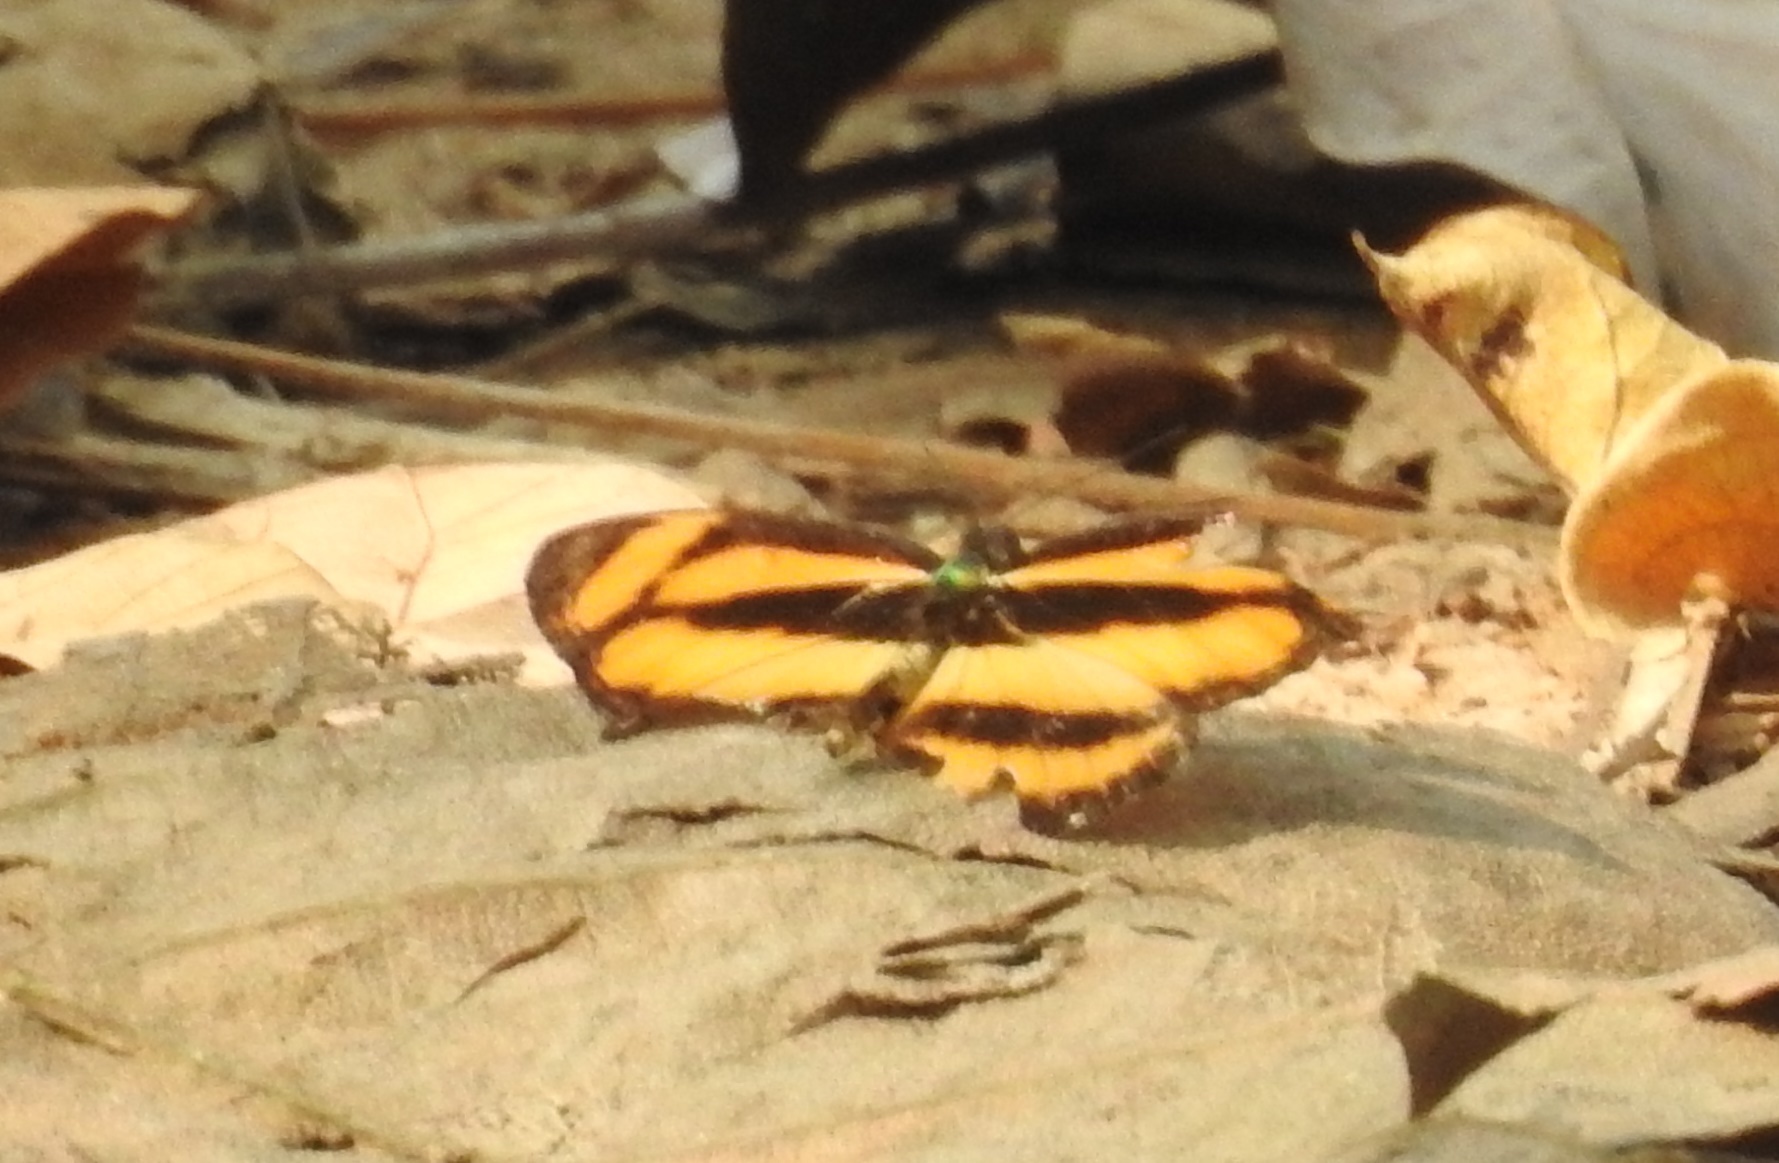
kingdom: Animalia
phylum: Arthropoda
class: Insecta
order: Lepidoptera
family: Nymphalidae
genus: Pantoporia
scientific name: Pantoporia hordonia
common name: Common lascar
